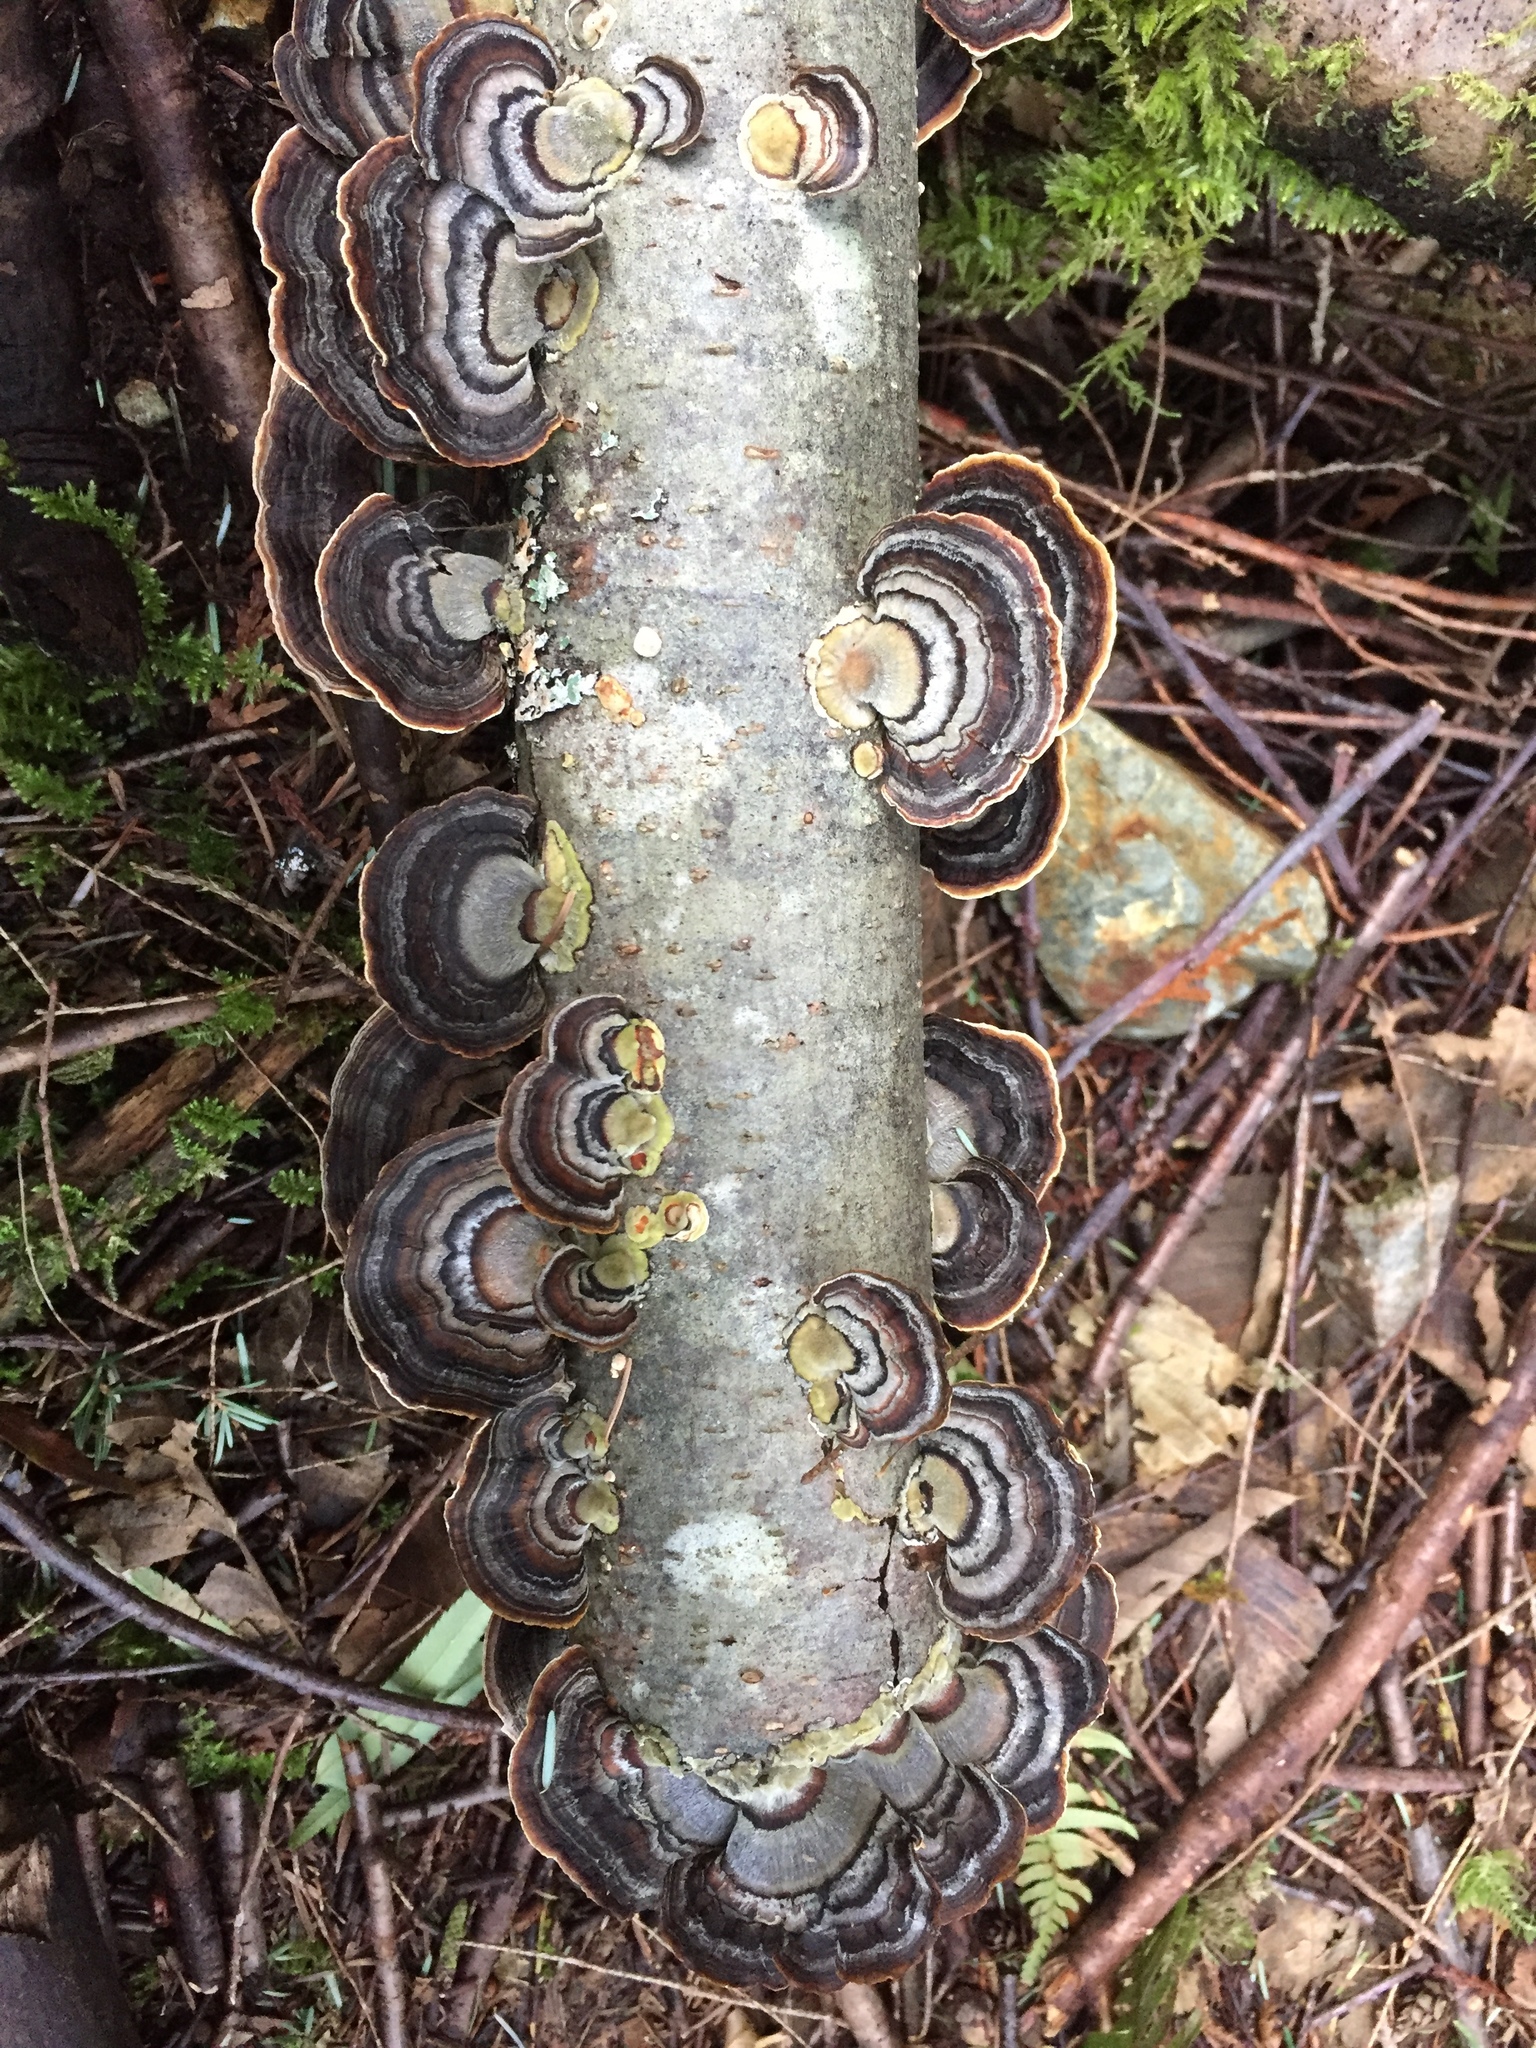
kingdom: Fungi
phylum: Basidiomycota
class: Agaricomycetes
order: Polyporales
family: Polyporaceae
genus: Trametes
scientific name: Trametes versicolor
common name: Turkeytail
